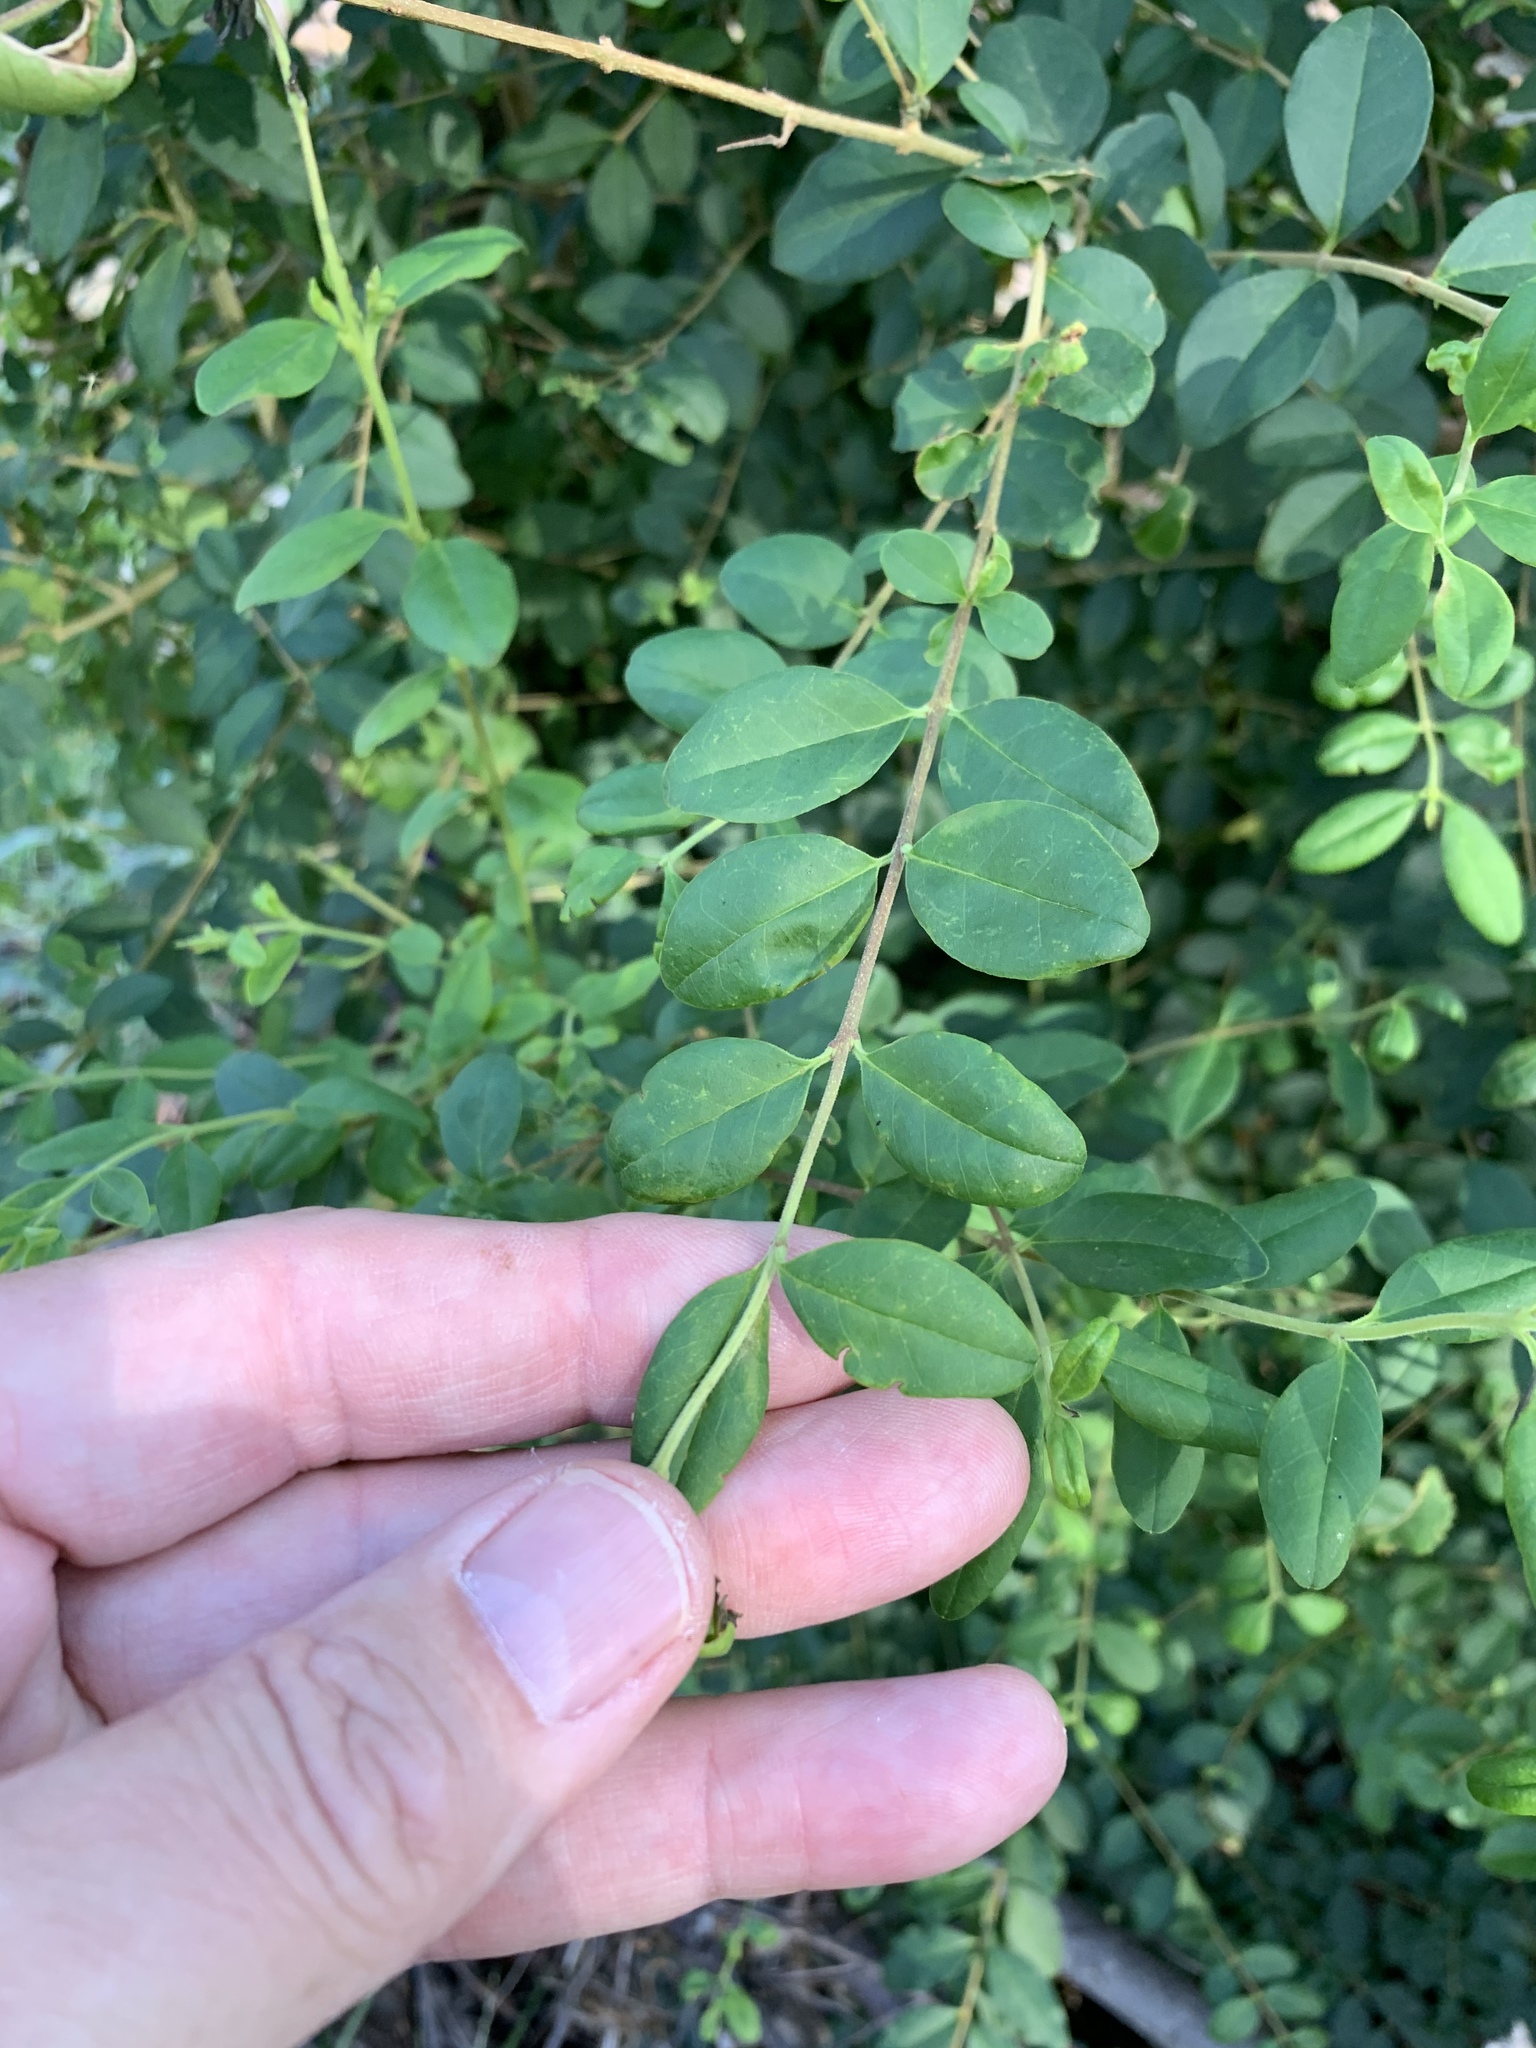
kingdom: Plantae
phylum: Tracheophyta
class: Magnoliopsida
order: Lamiales
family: Oleaceae
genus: Ligustrum
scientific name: Ligustrum sinense
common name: Chinese privet
